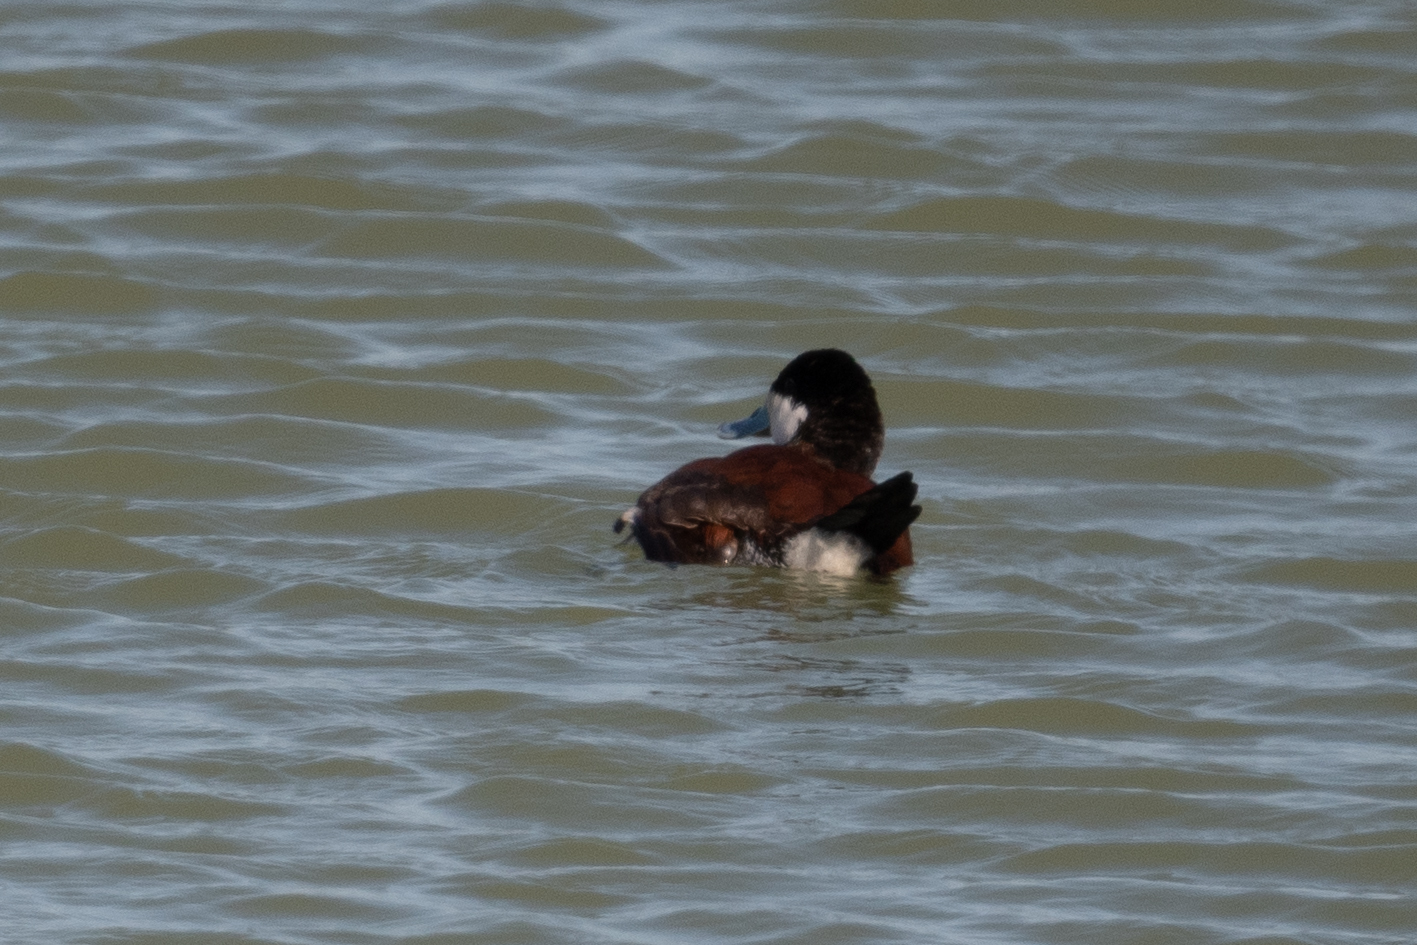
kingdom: Animalia
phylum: Chordata
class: Aves
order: Anseriformes
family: Anatidae
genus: Oxyura
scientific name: Oxyura jamaicensis
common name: Ruddy duck
